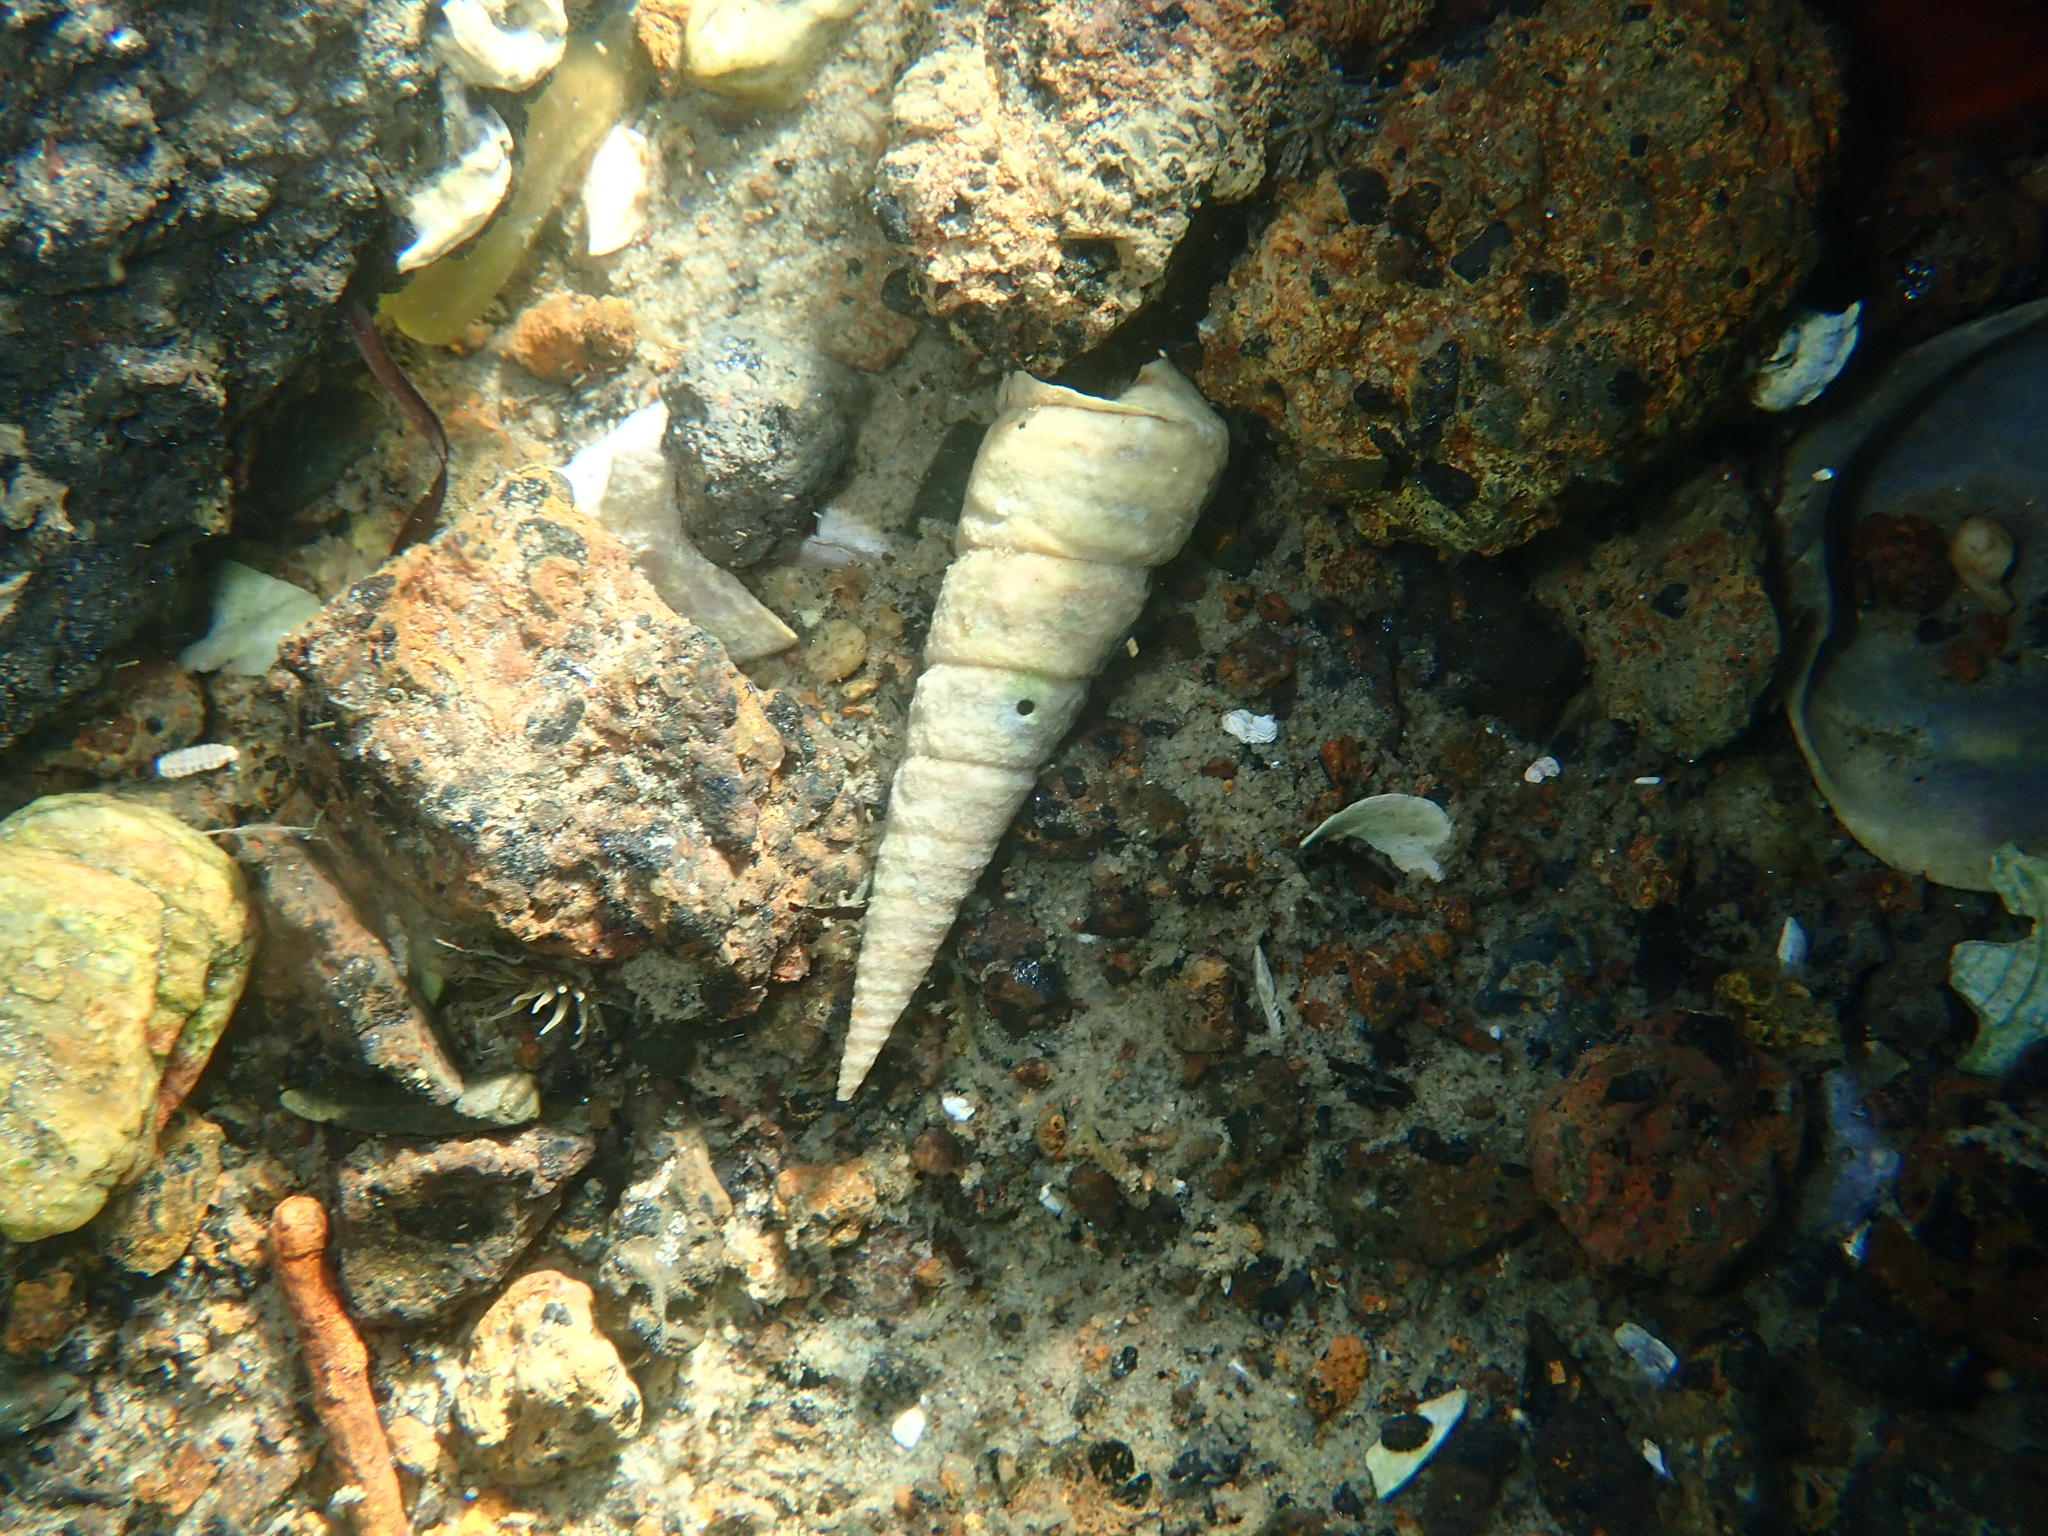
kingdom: Animalia
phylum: Mollusca
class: Gastropoda
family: Turritellidae
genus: Maoricolpus
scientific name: Maoricolpus roseus
